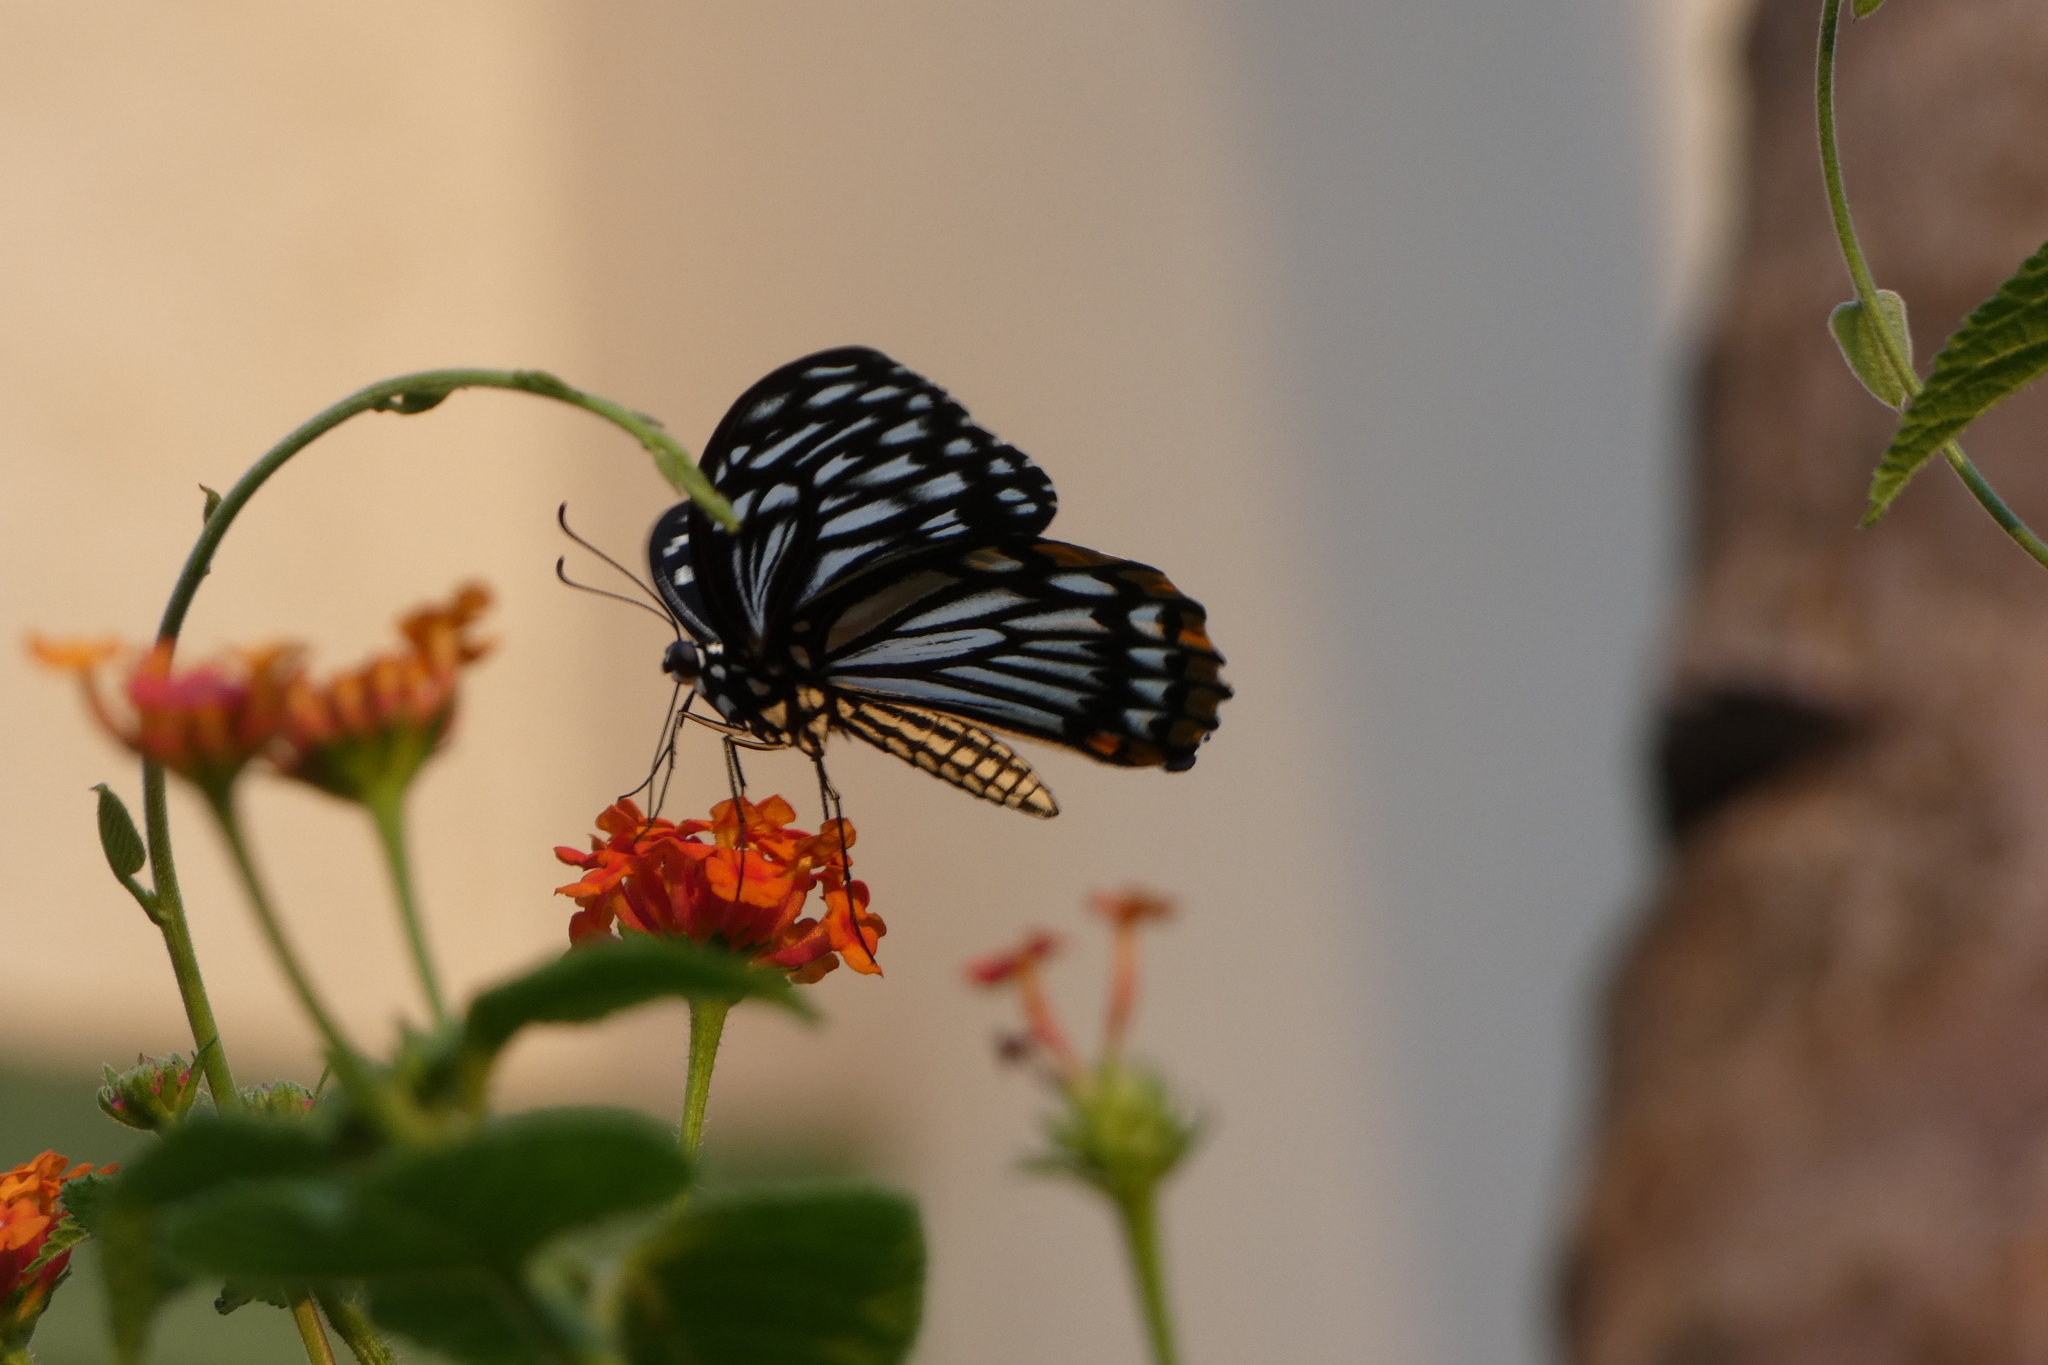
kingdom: Animalia
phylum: Arthropoda
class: Insecta
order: Lepidoptera
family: Papilionidae
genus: Chilasa
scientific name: Chilasa clytia
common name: Common mime
